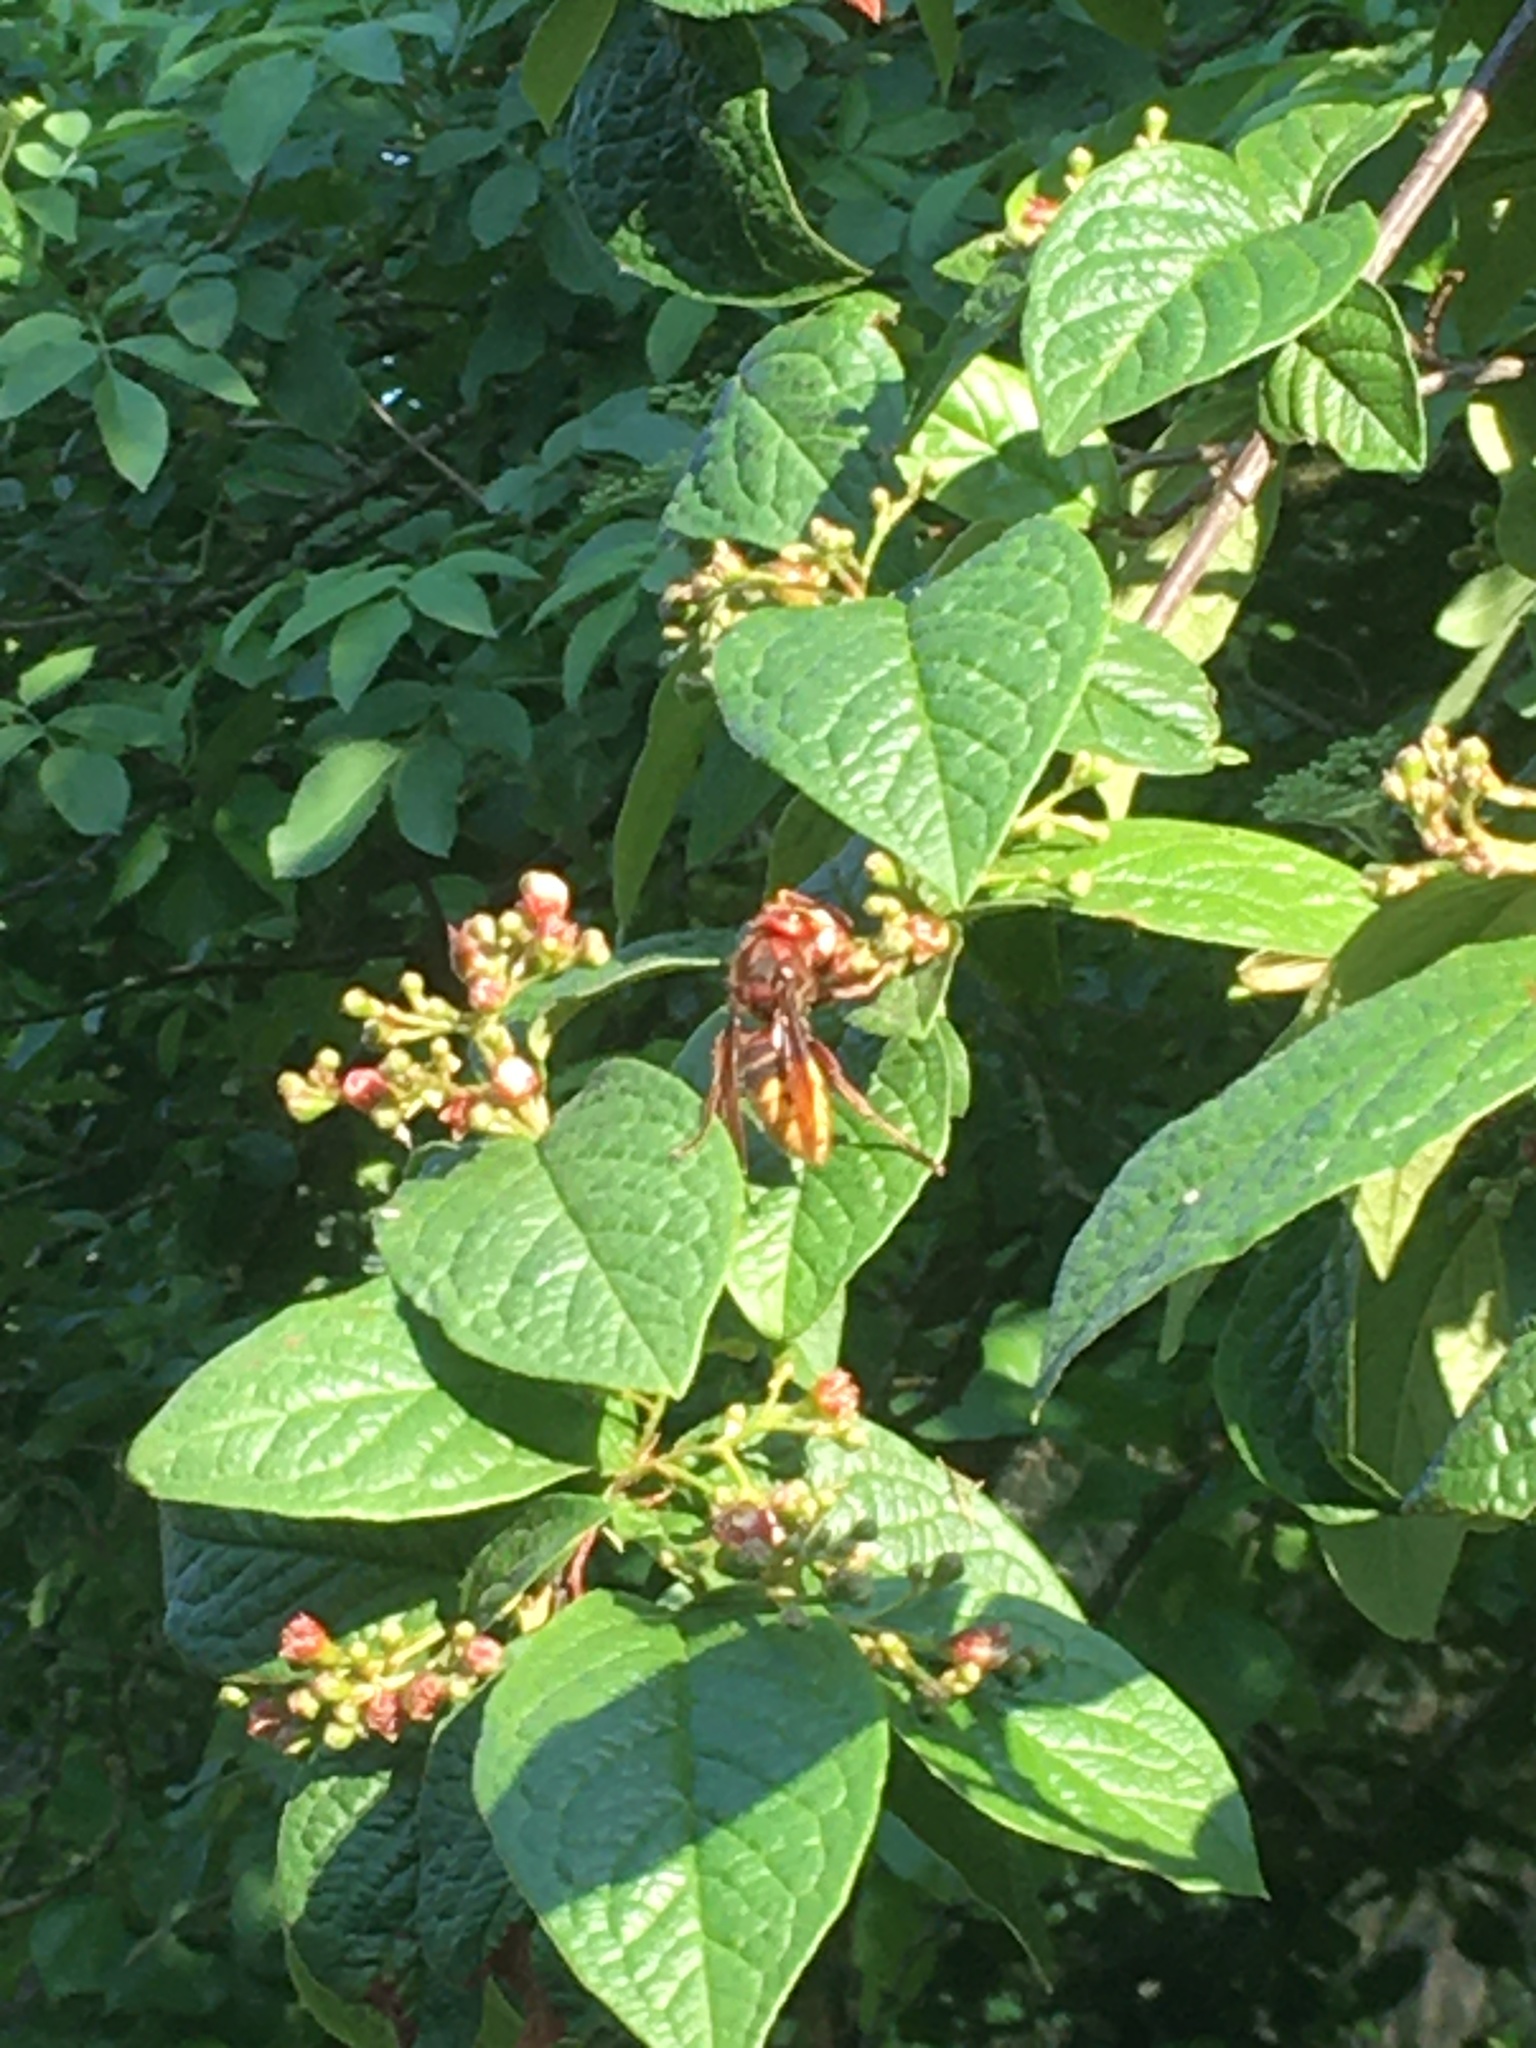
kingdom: Animalia
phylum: Arthropoda
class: Insecta
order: Hymenoptera
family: Vespidae
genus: Vespa
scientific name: Vespa crabro
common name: Hornet
